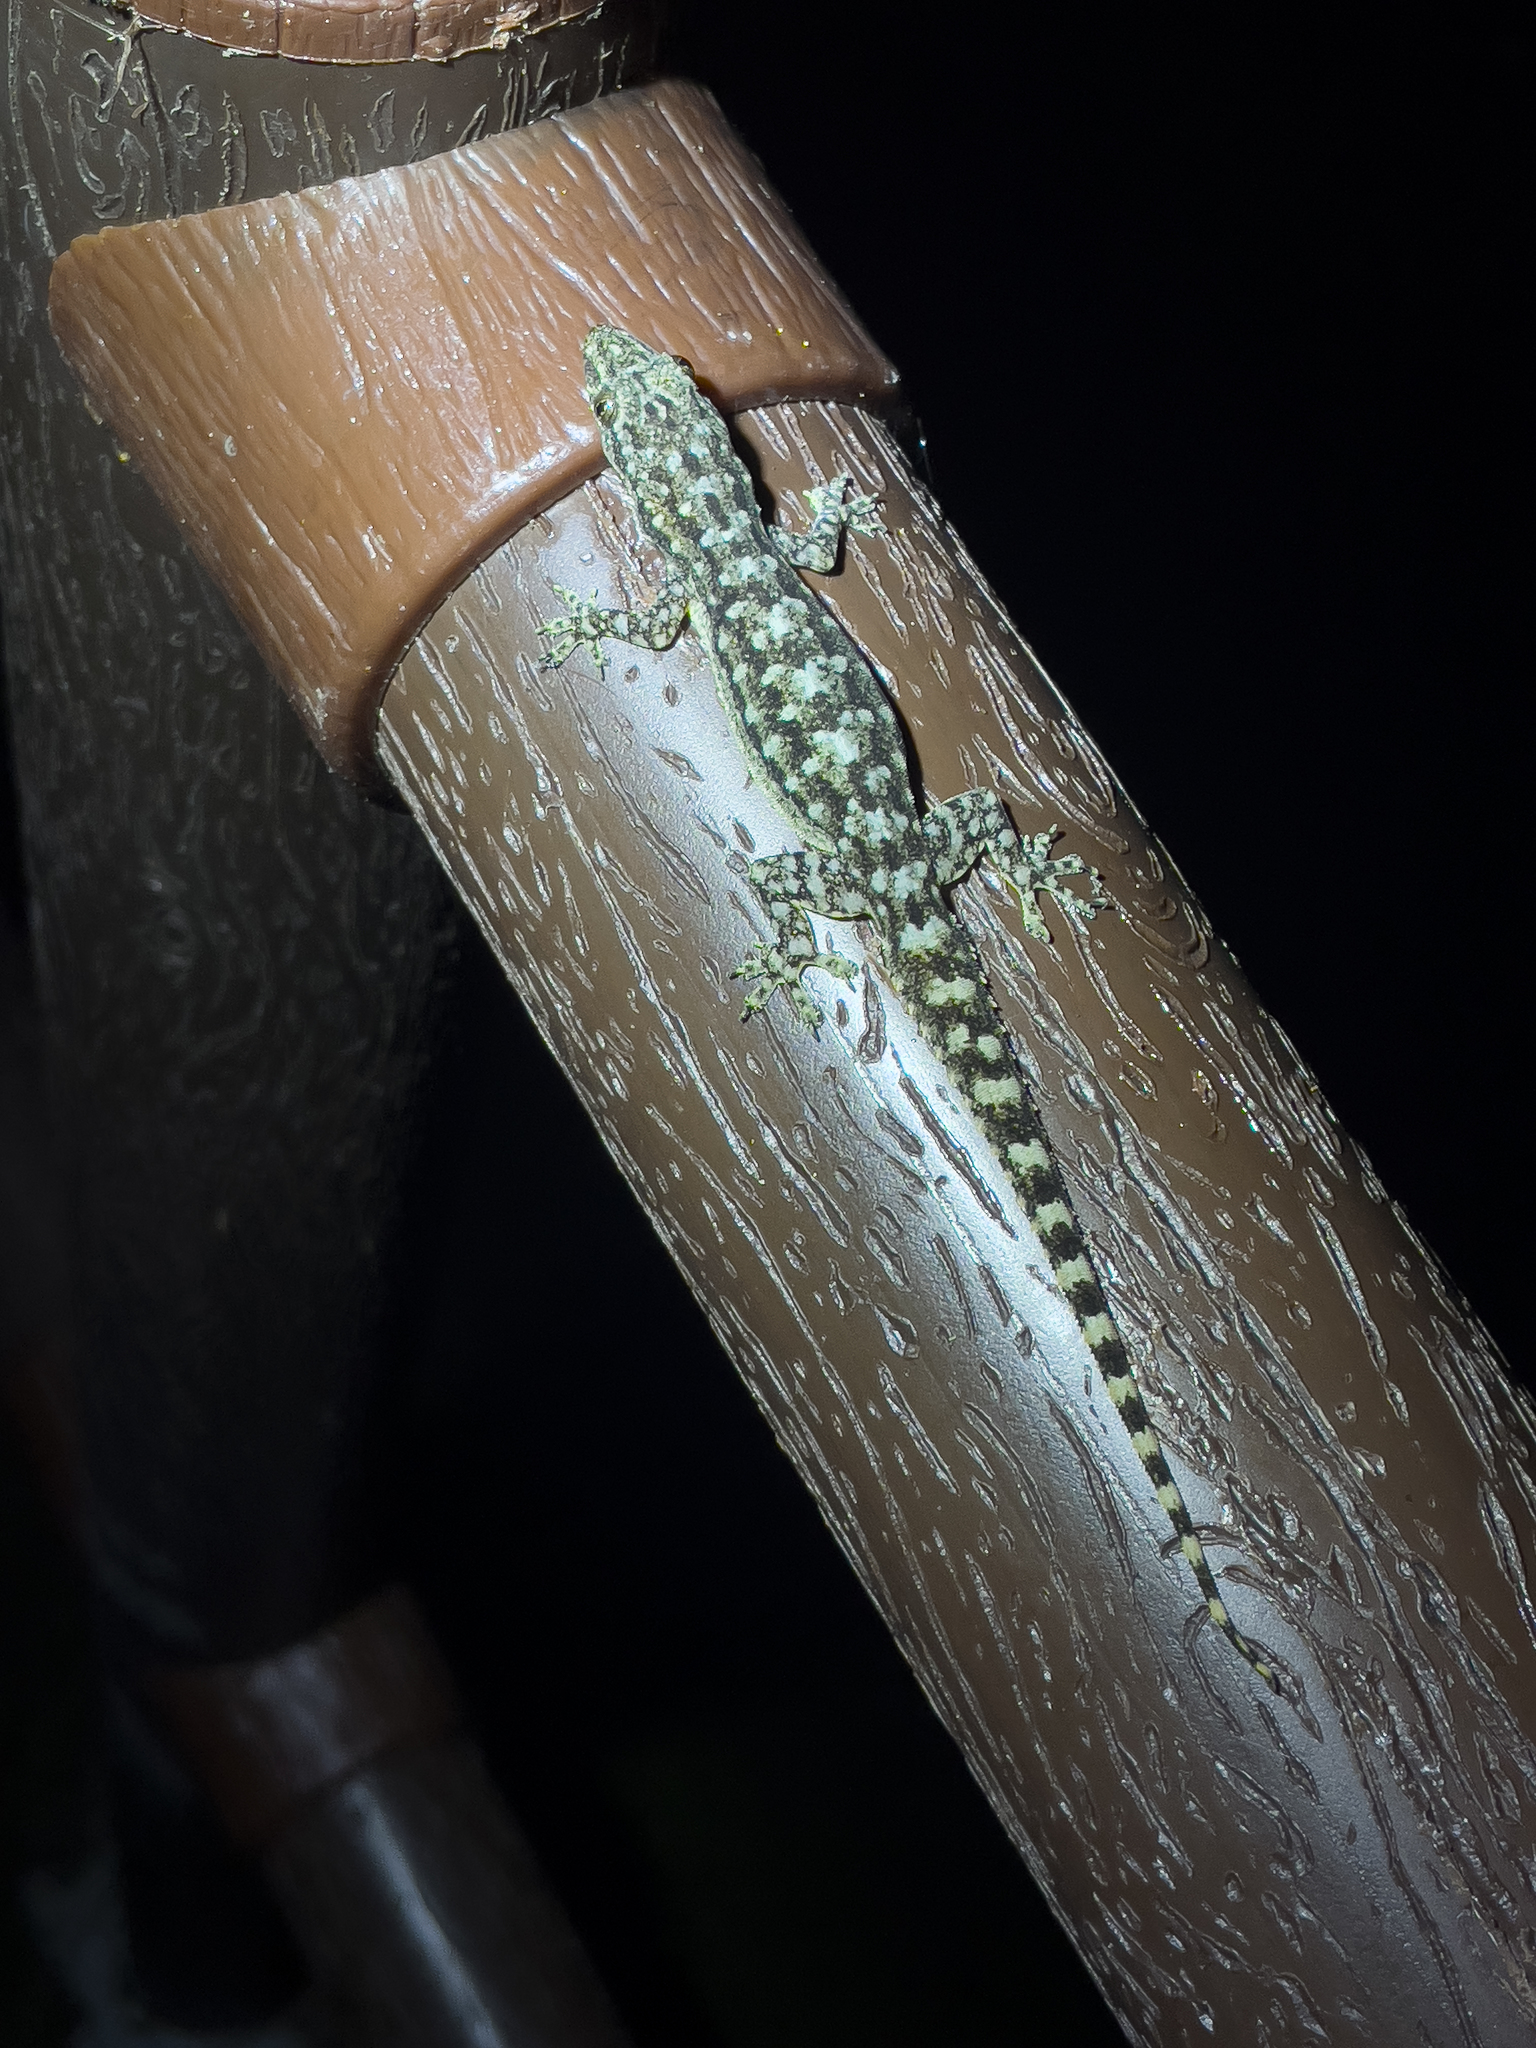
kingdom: Animalia
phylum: Chordata
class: Squamata
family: Gekkonidae
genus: Hemidactylus
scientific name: Hemidactylus garnotii
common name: Indo-pacific gecko
